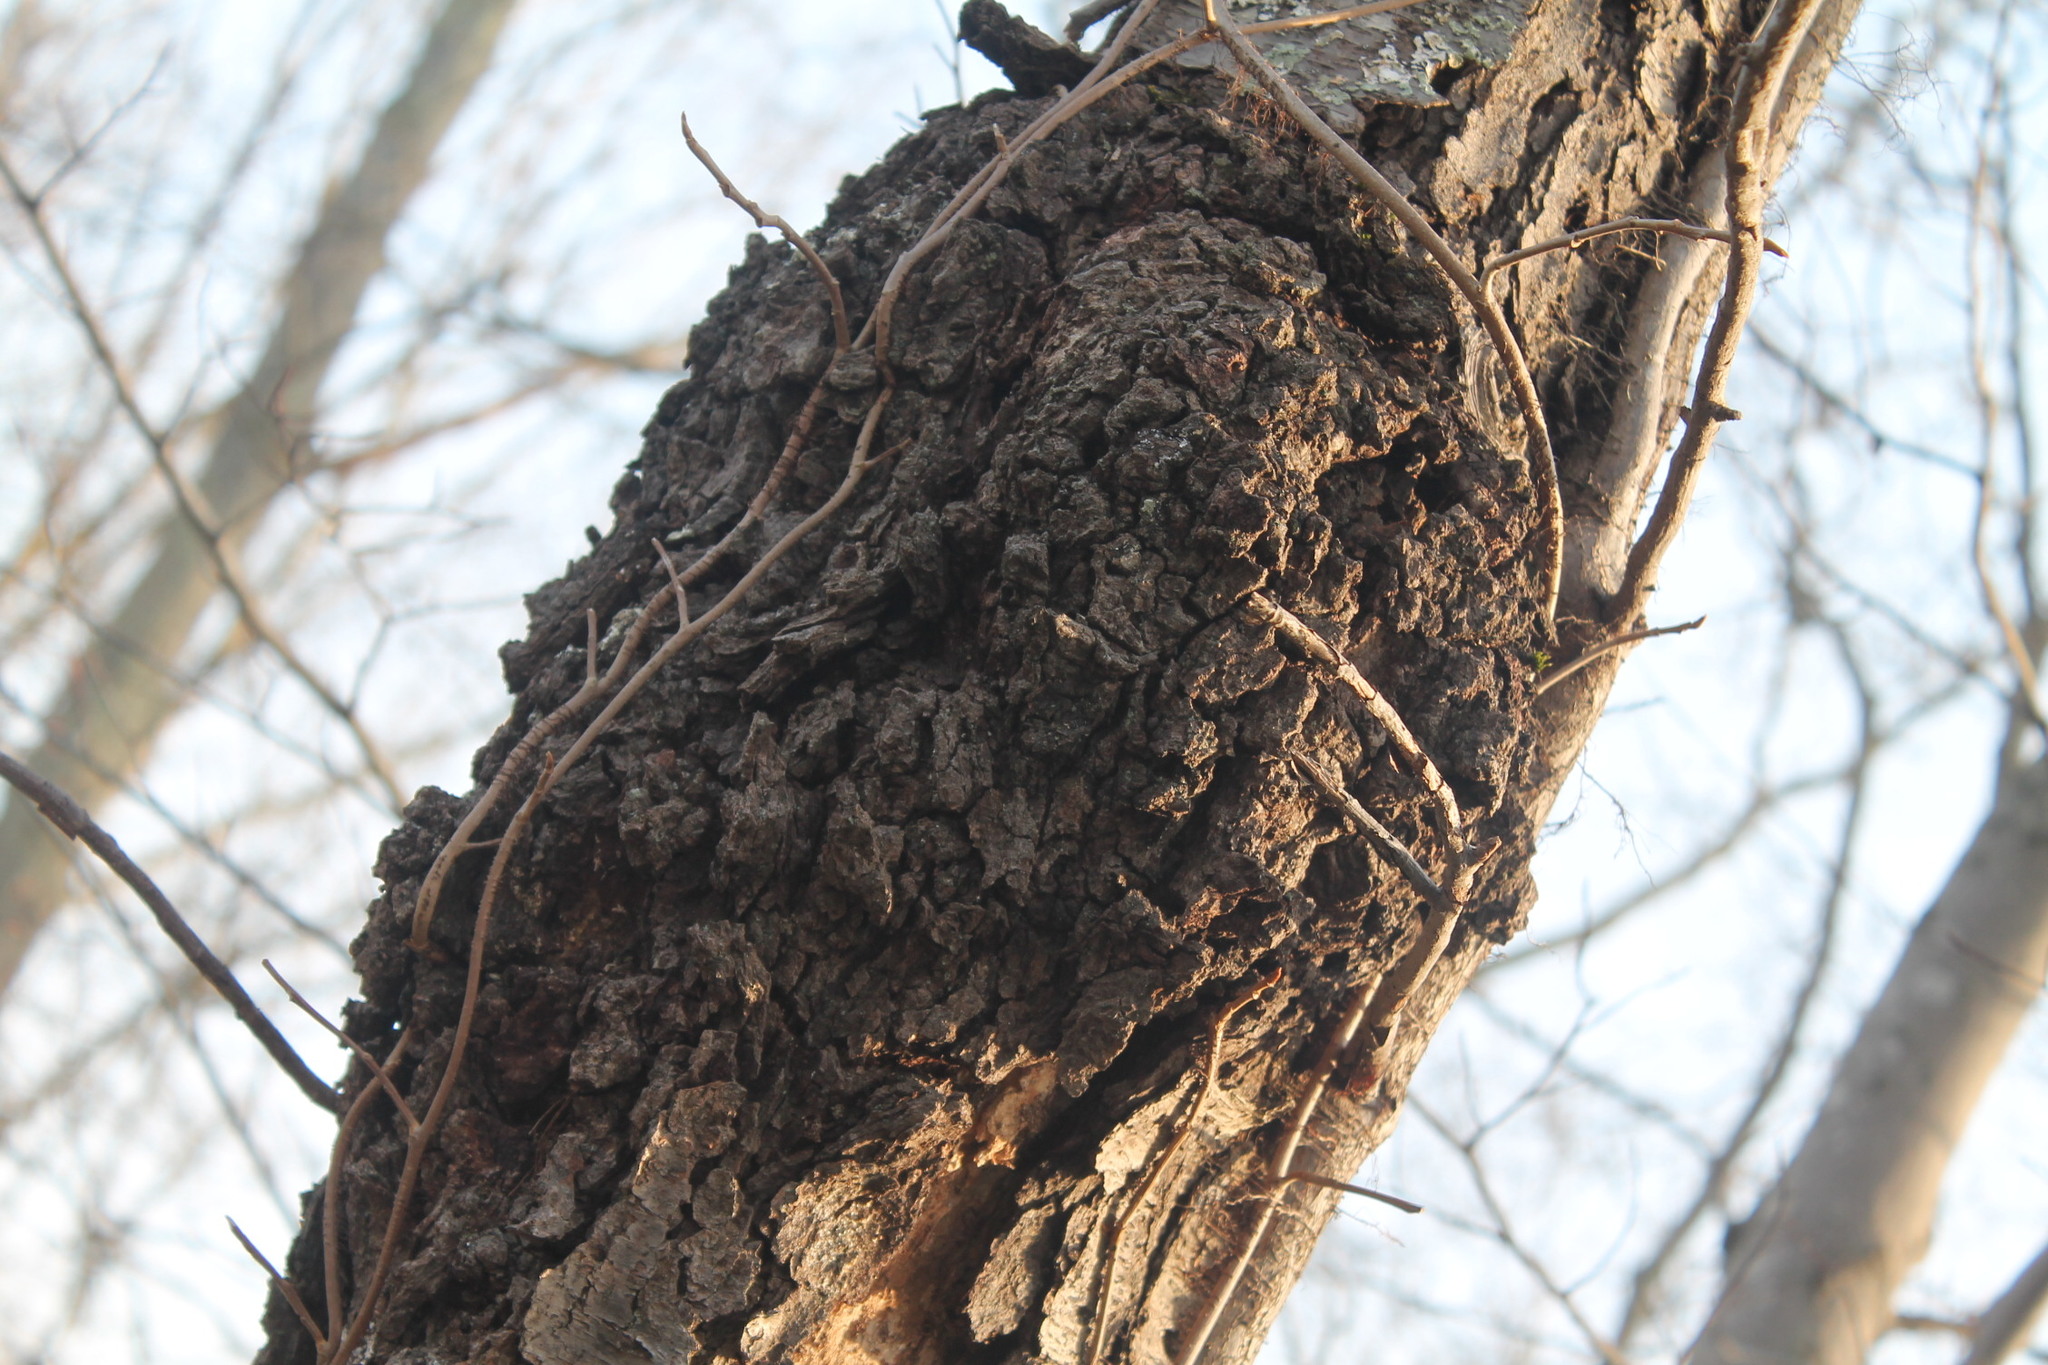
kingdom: Bacteria
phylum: Proteobacteria
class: Alphaproteobacteria
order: Rhizobiales
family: Rhizobiaceae
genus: Rhizobium
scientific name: Rhizobium Agrobacterium radiobacter
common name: Bacterial crown gall
